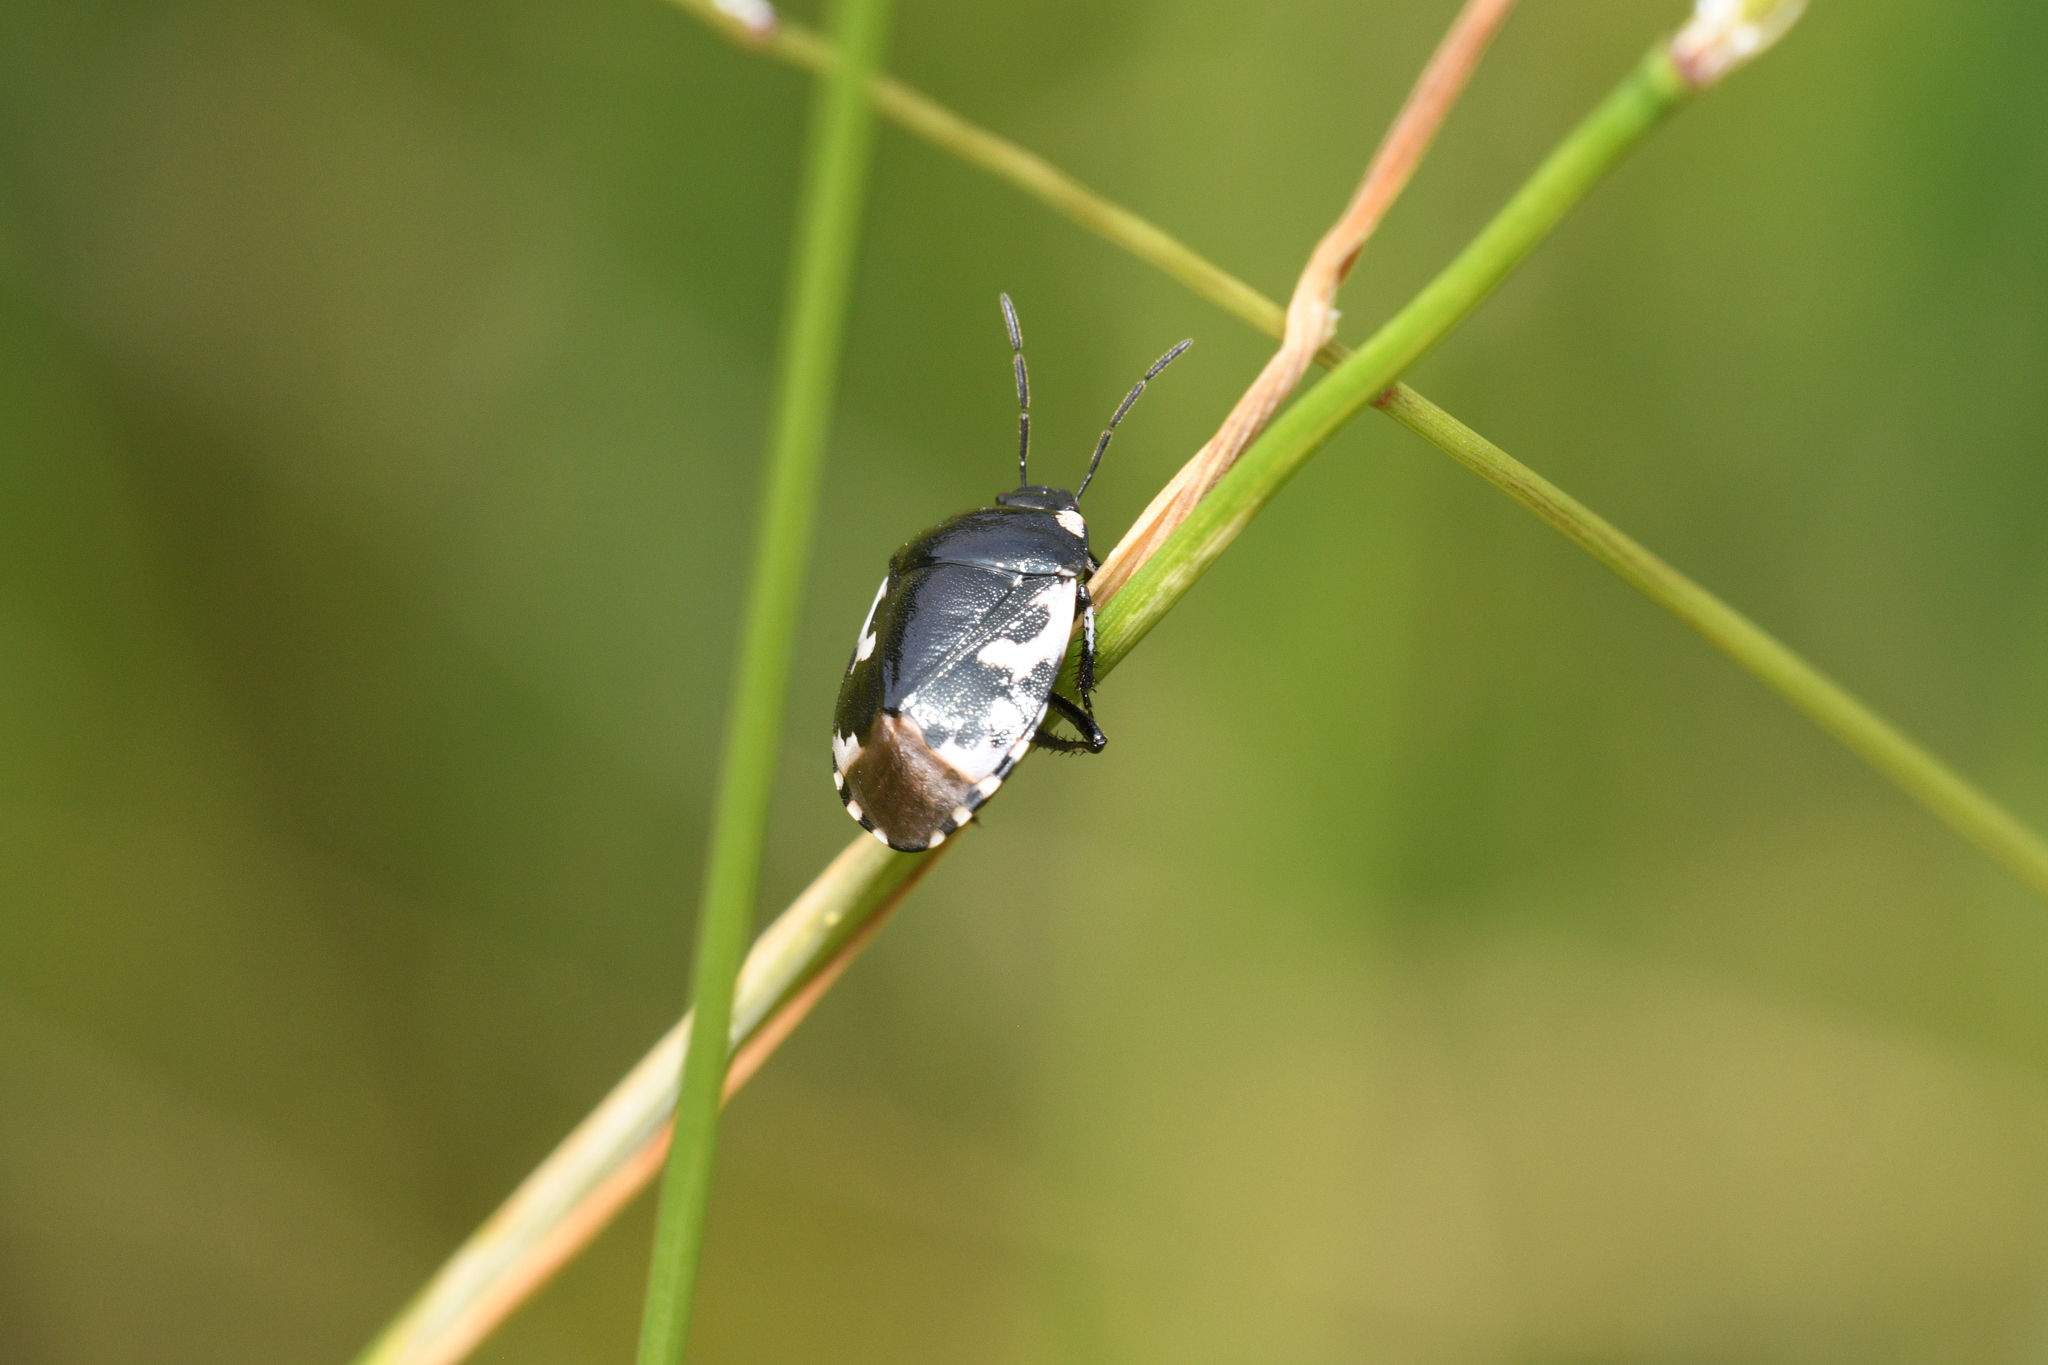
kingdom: Animalia
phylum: Arthropoda
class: Insecta
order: Hemiptera
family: Cydnidae
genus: Tritomegas
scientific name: Tritomegas bicolor
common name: Pied shieldbug
